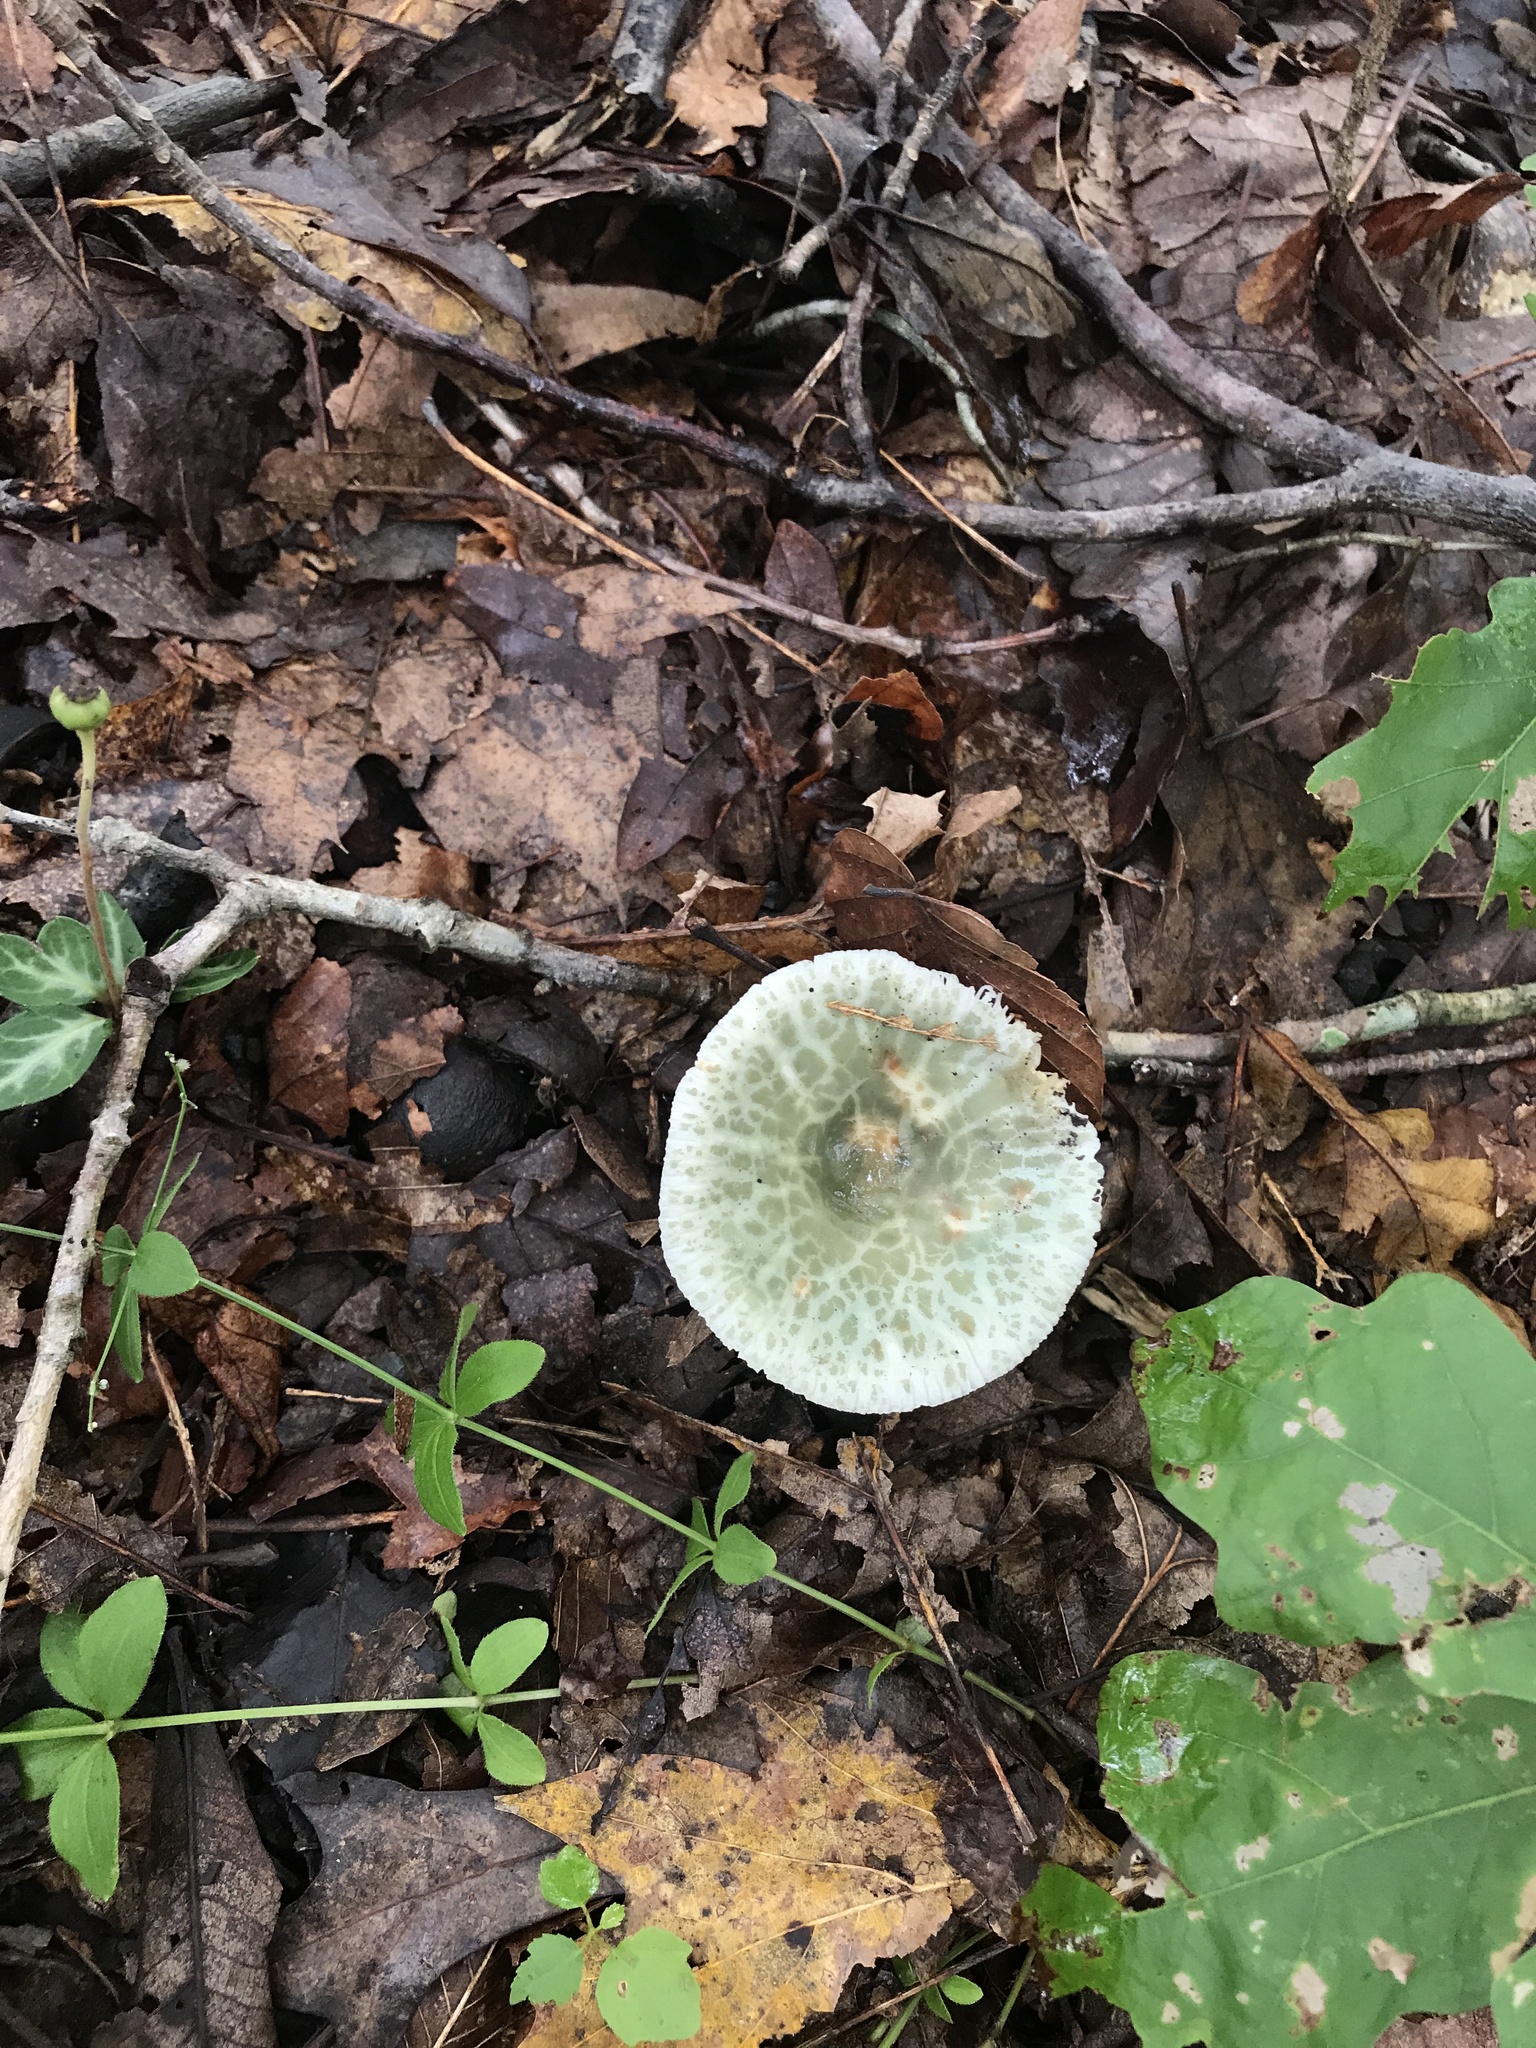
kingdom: Fungi
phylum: Basidiomycota
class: Agaricomycetes
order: Russulales
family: Russulaceae
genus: Russula
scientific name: Russula parvovirescens
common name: Blue-green cracking russula
